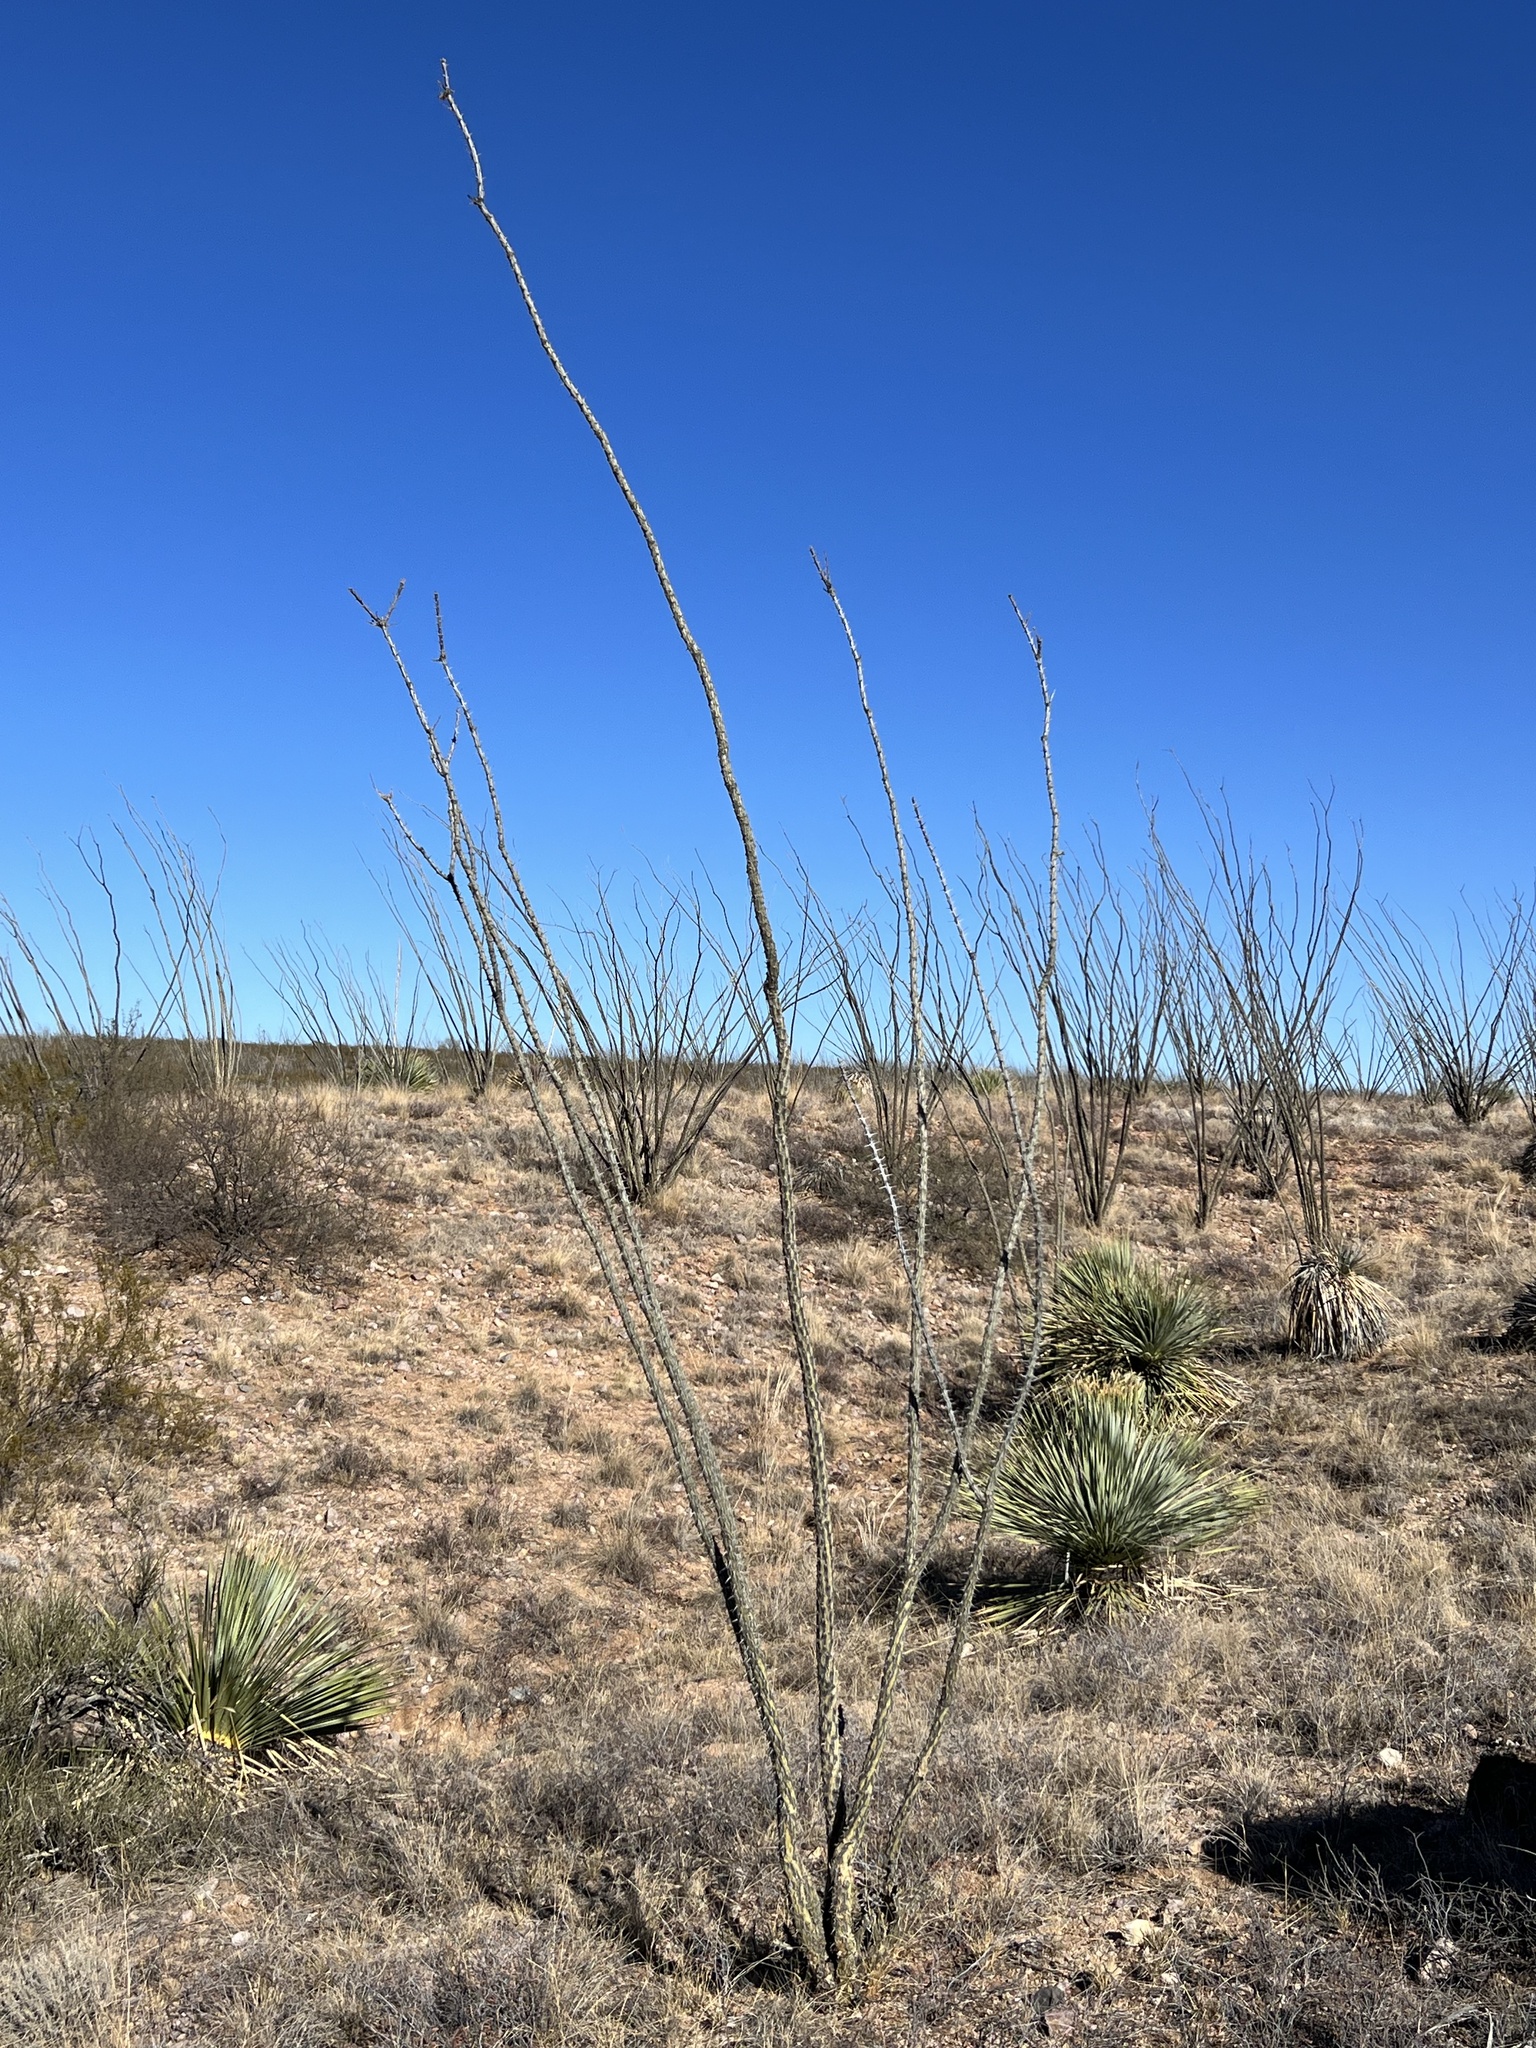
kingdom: Plantae
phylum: Tracheophyta
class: Magnoliopsida
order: Ericales
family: Fouquieriaceae
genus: Fouquieria
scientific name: Fouquieria splendens
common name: Vine-cactus
